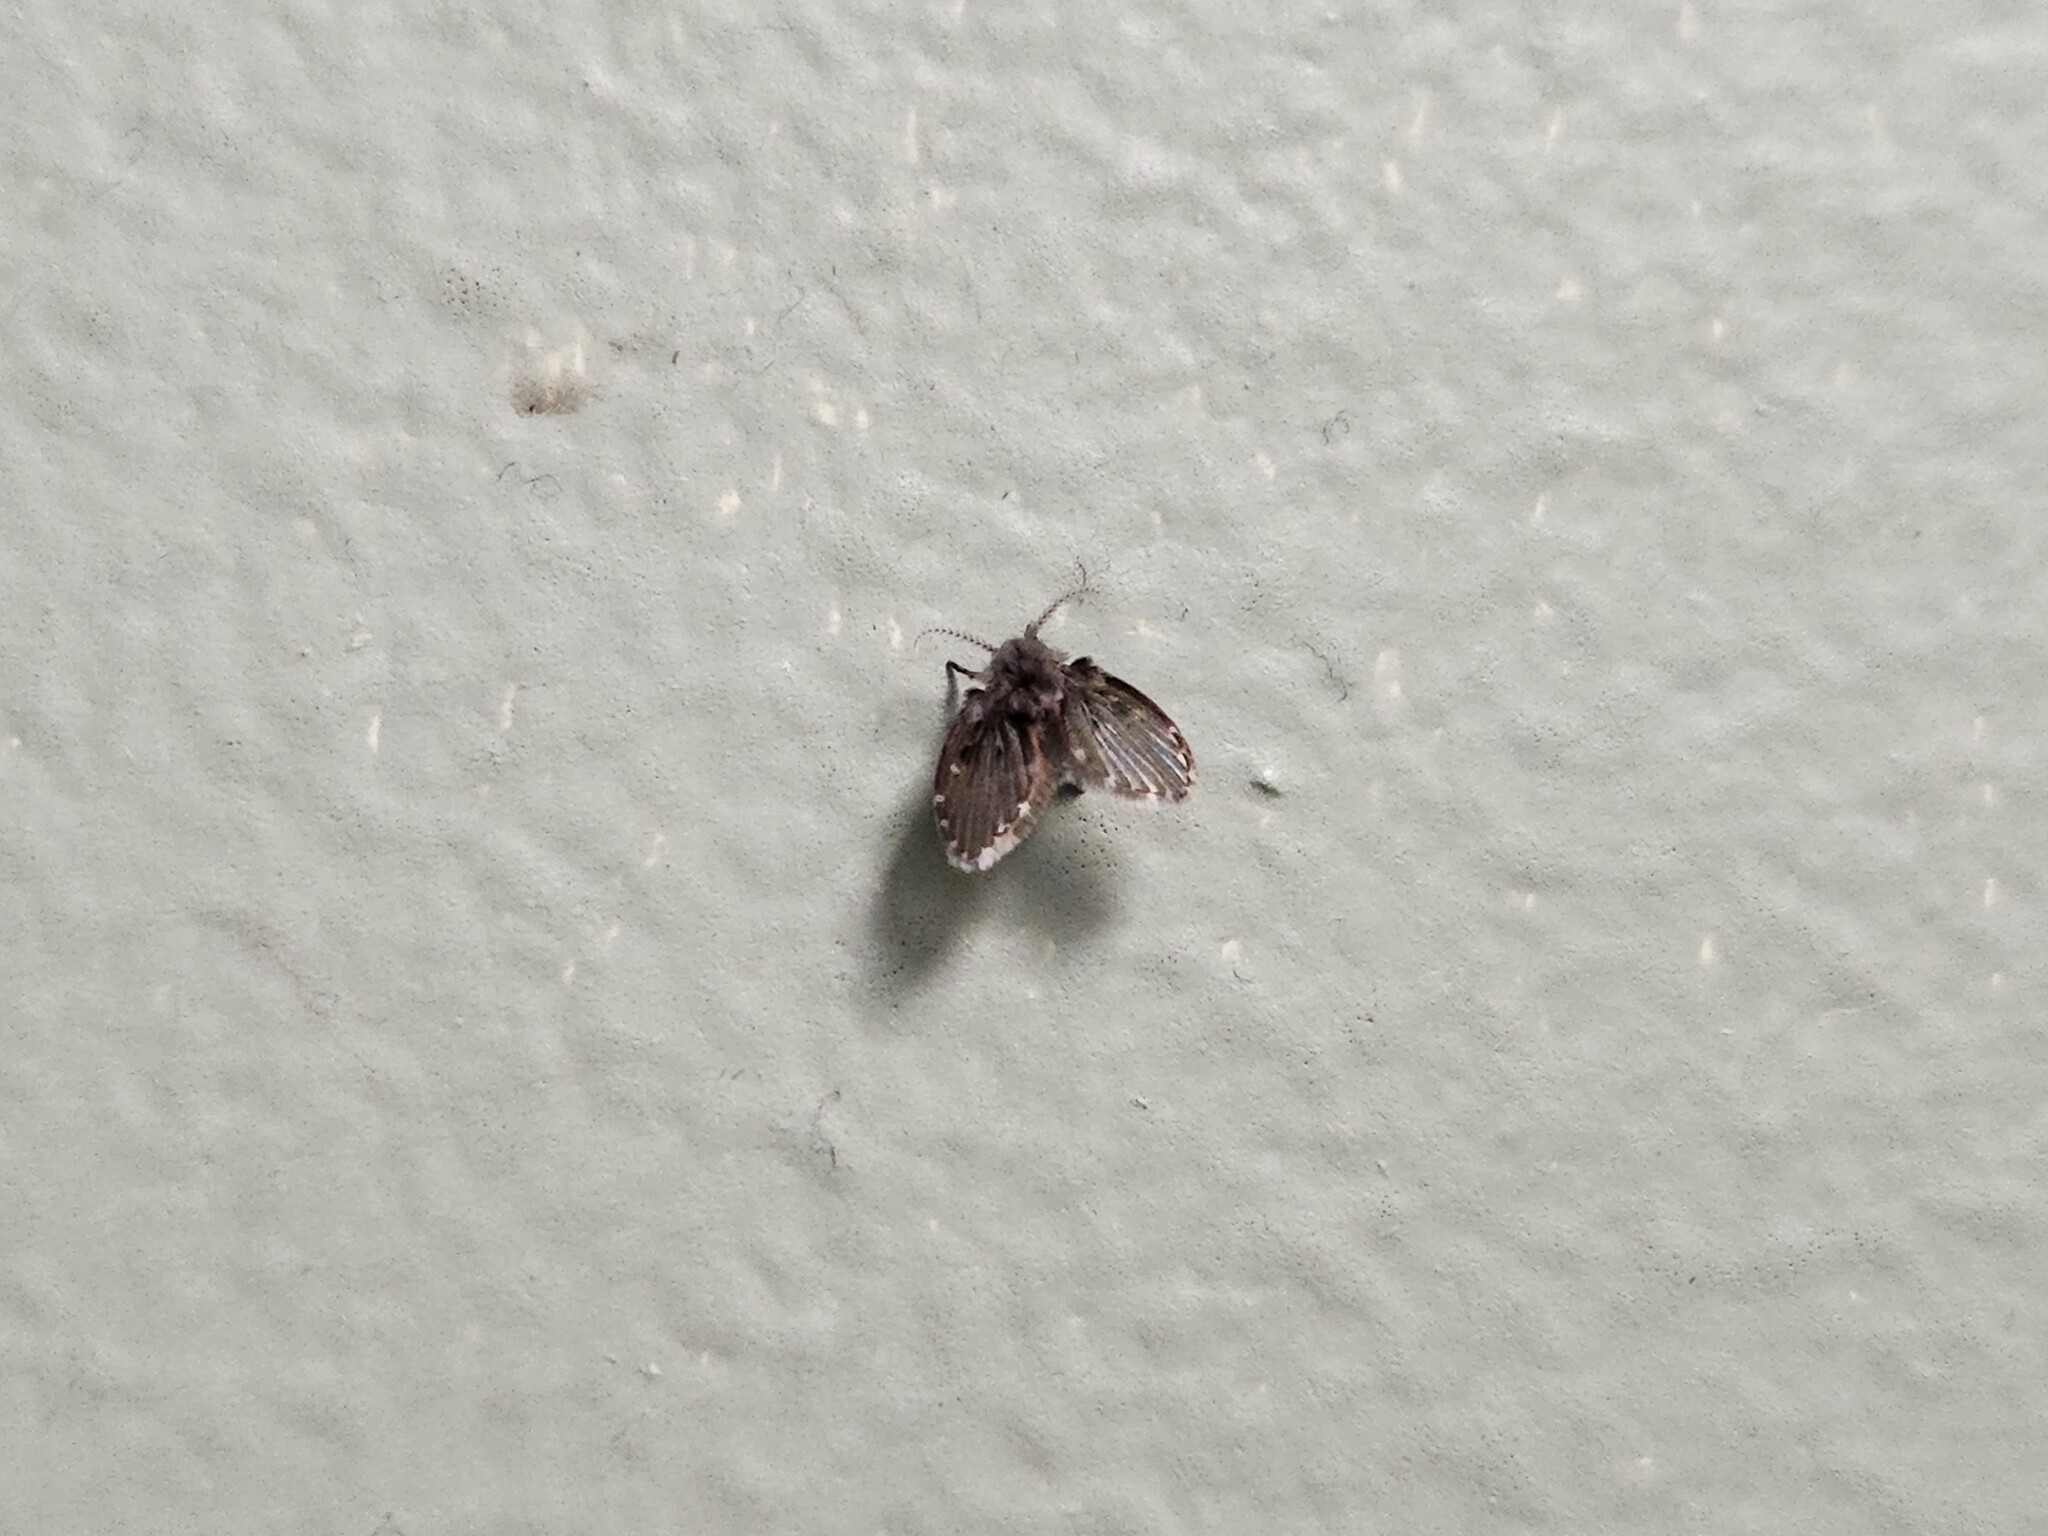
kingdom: Animalia
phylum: Arthropoda
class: Insecta
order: Diptera
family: Psychodidae
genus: Clogmia
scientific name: Clogmia albipunctatus
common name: White-spotted moth fly
